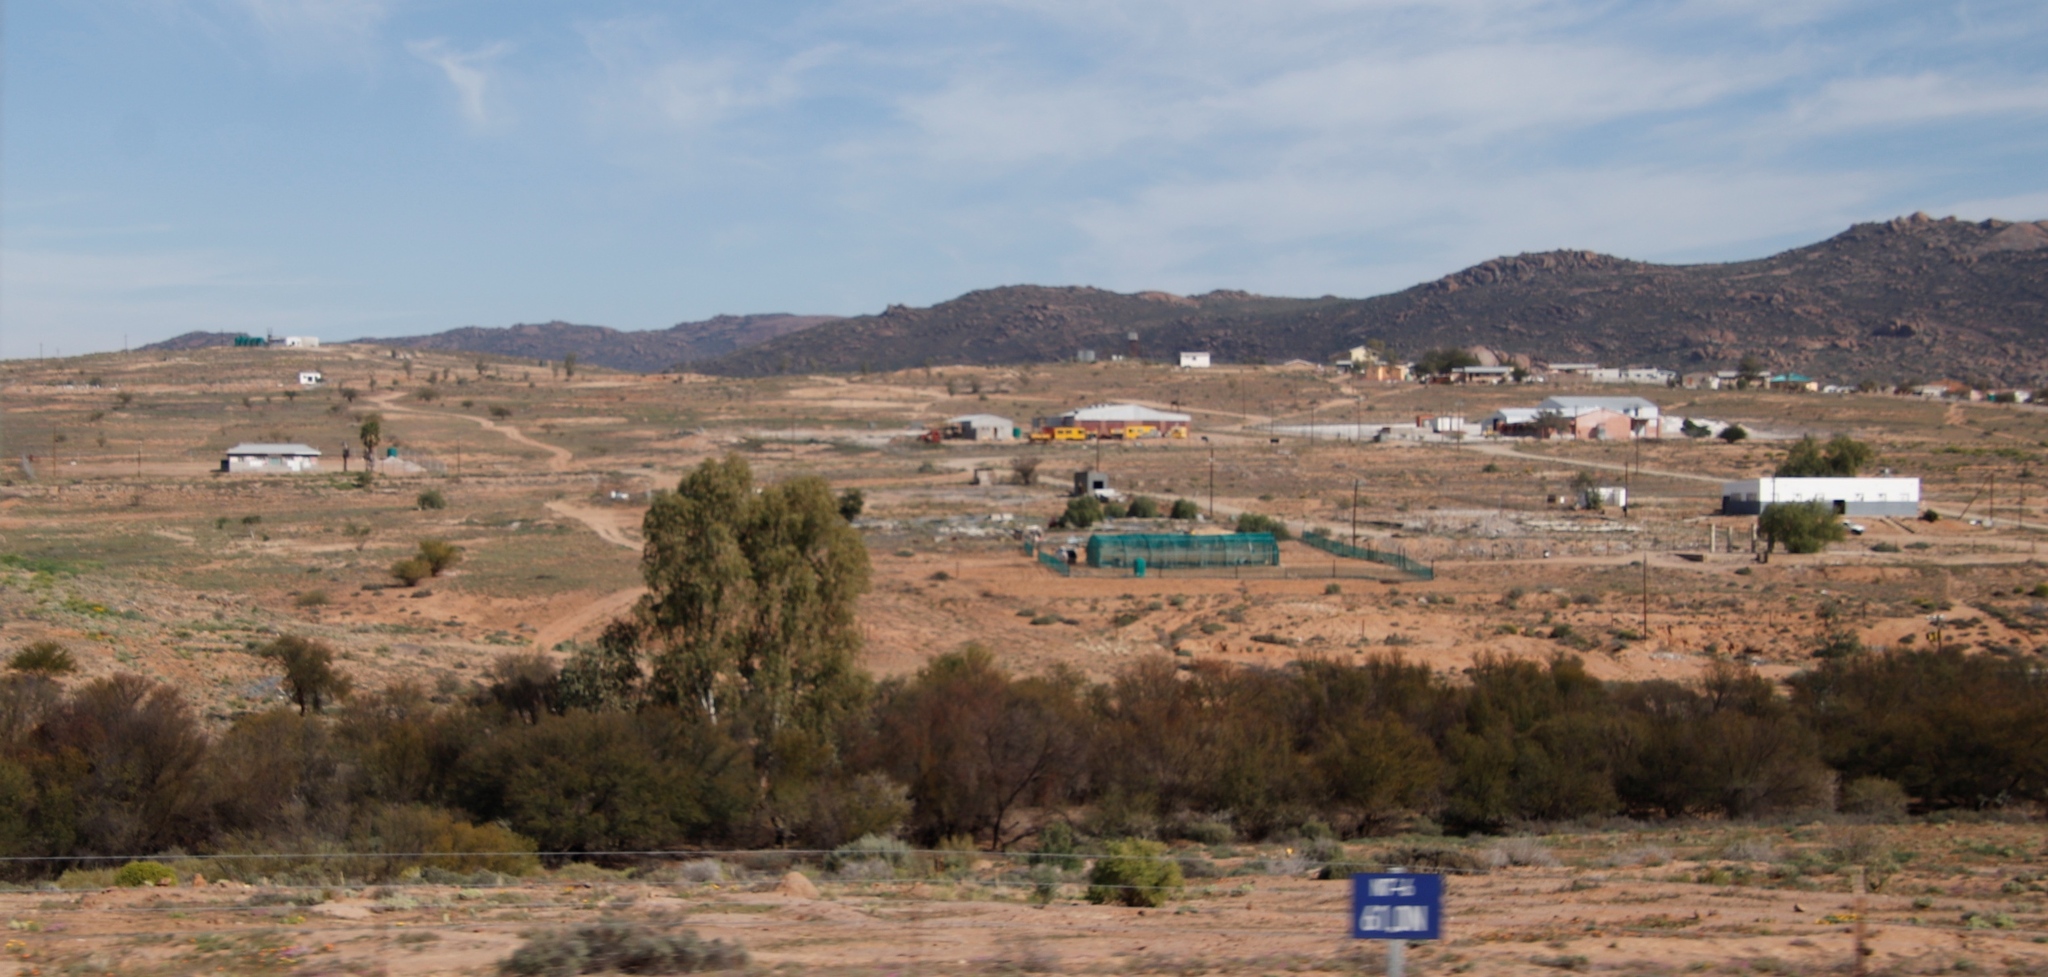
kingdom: Plantae
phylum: Tracheophyta
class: Magnoliopsida
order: Fabales
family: Fabaceae
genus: Vachellia
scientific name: Vachellia karroo
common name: Sweet thorn
